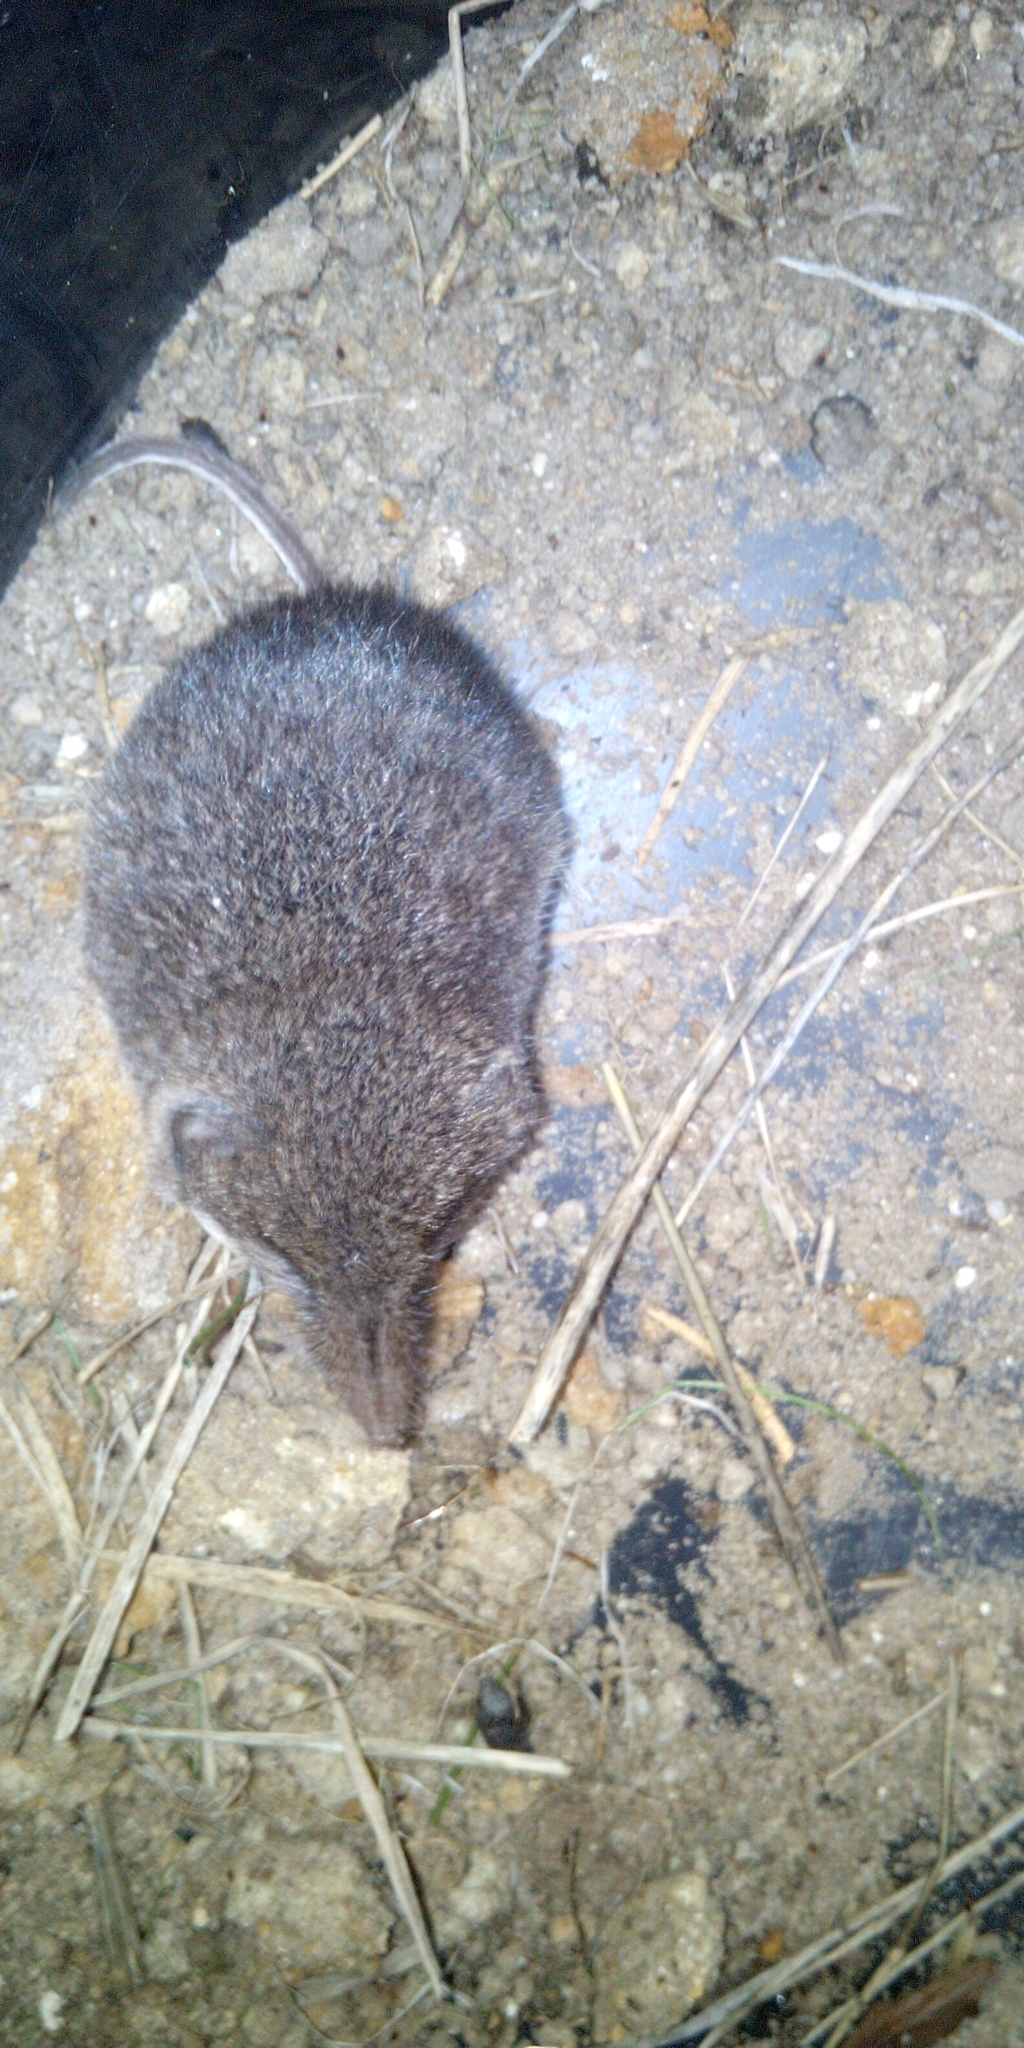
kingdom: Animalia
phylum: Chordata
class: Mammalia
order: Soricomorpha
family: Soricidae
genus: Myosorex
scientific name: Myosorex varius
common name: Forest shrew
